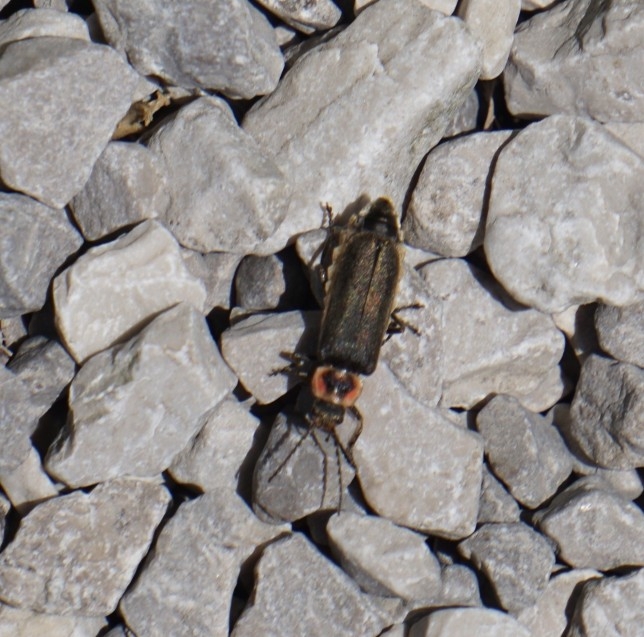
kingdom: Animalia
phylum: Arthropoda
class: Insecta
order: Coleoptera
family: Cantharidae
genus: Atalantycha
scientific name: Atalantycha dentigera
